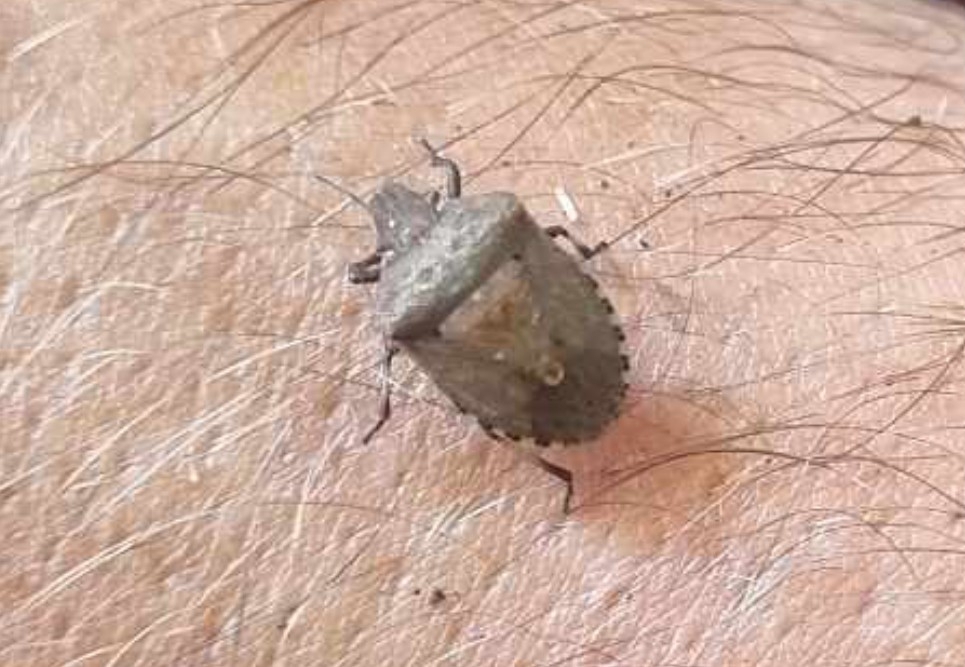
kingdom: Animalia
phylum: Arthropoda
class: Insecta
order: Hemiptera
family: Pentatomidae
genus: Dictyotus
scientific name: Dictyotus caenosus
